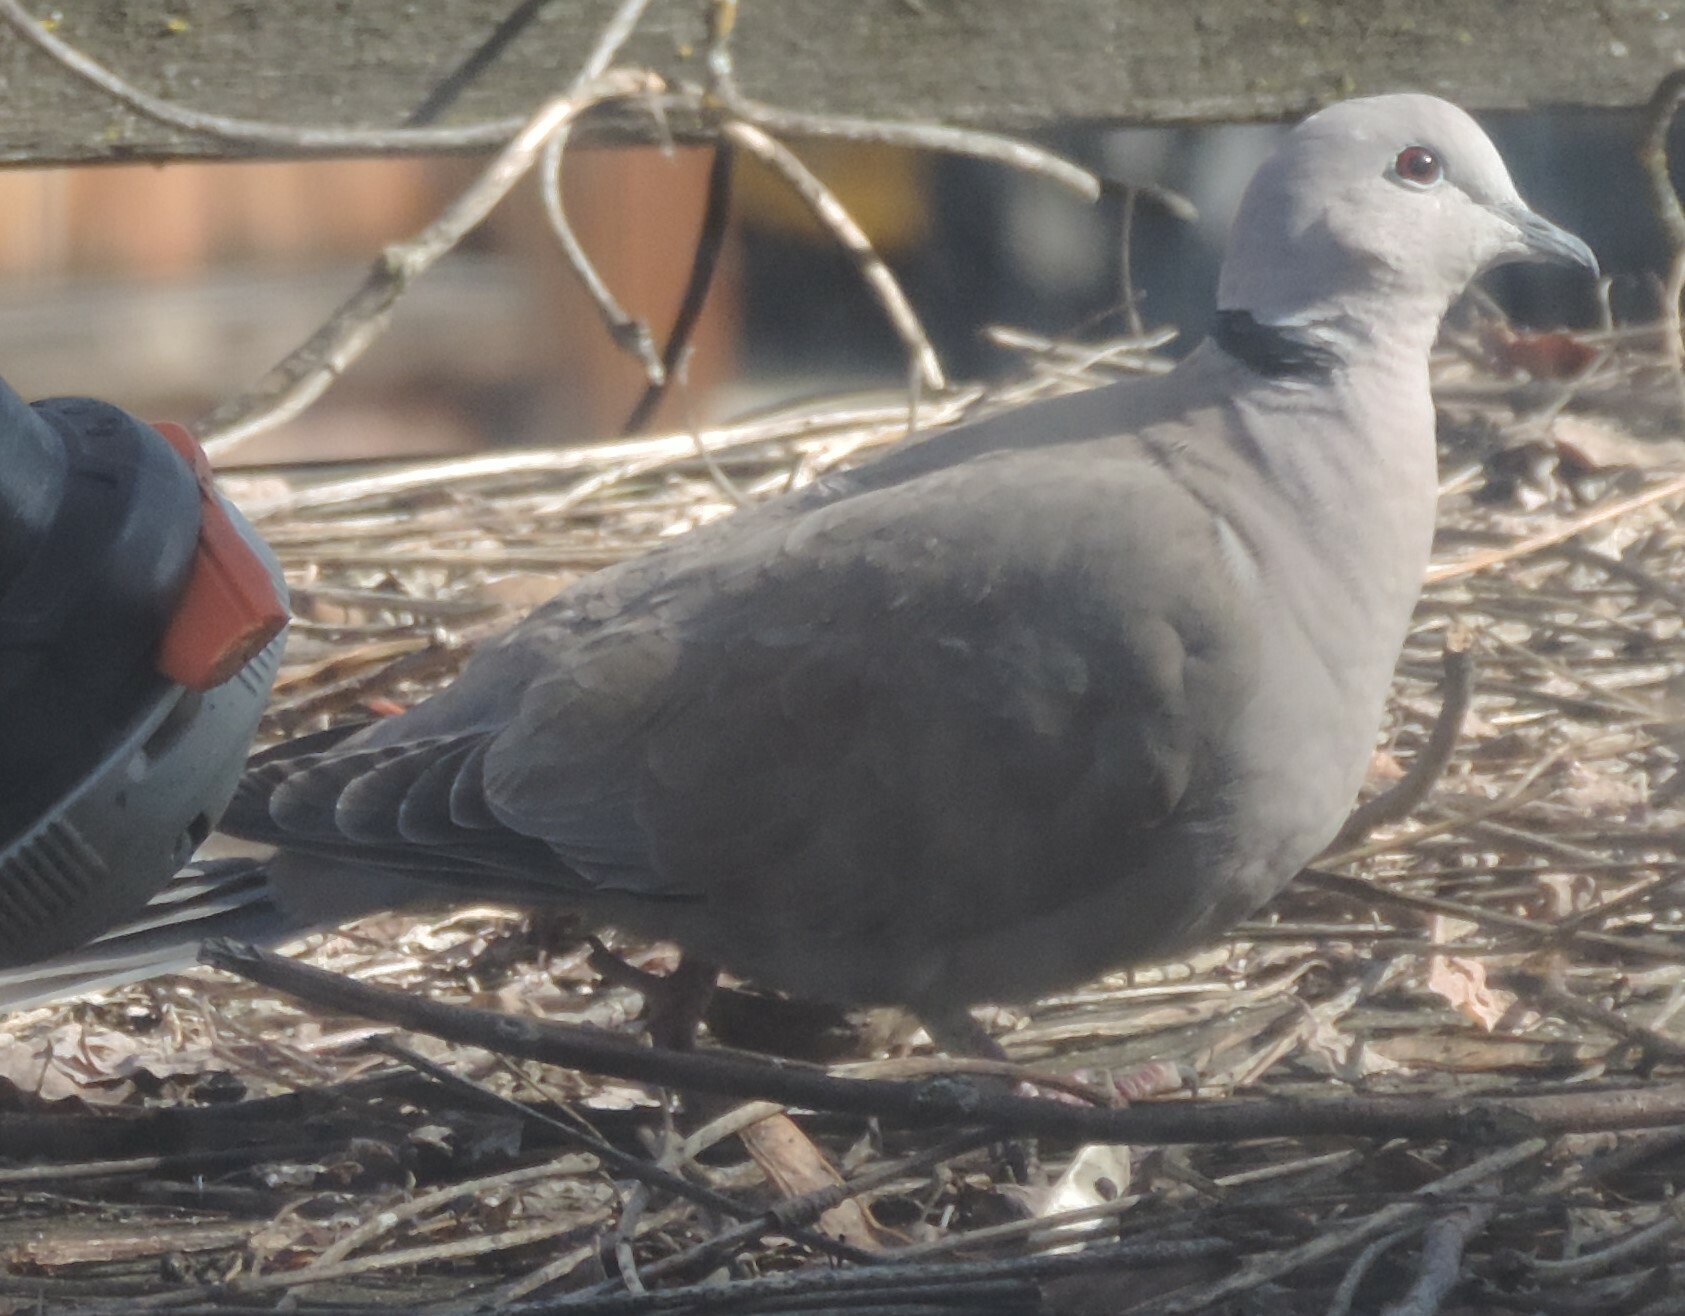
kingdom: Animalia
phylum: Chordata
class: Aves
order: Columbiformes
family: Columbidae
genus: Streptopelia
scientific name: Streptopelia decaocto
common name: Eurasian collared dove
